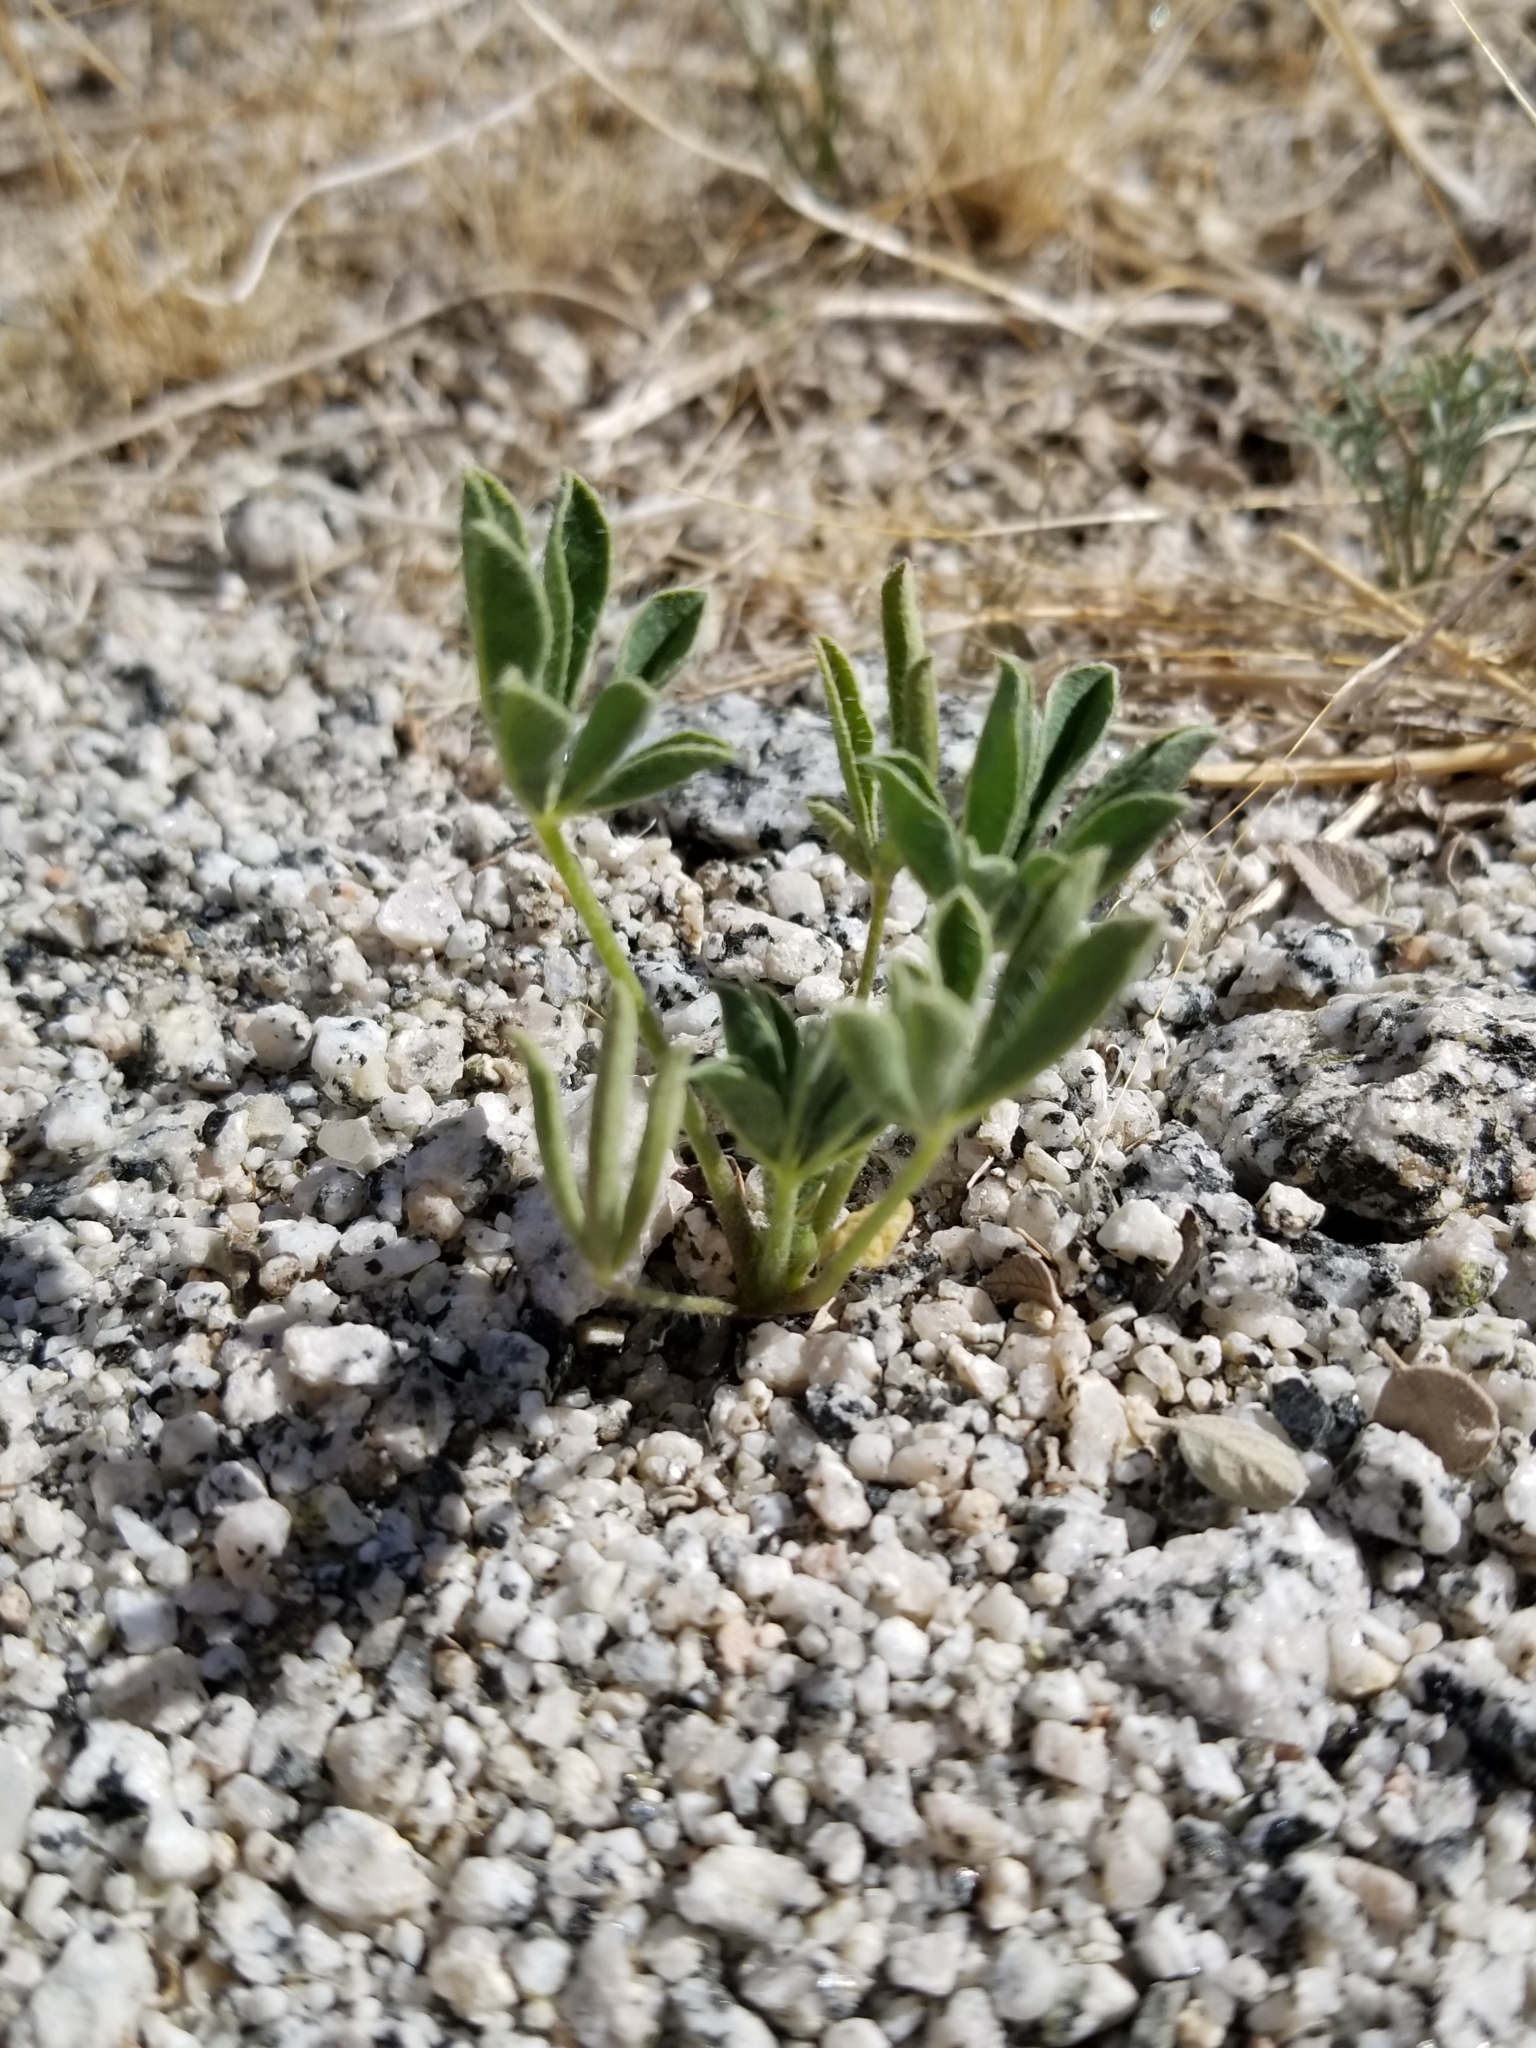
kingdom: Plantae
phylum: Tracheophyta
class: Magnoliopsida
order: Fabales
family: Fabaceae
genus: Lupinus
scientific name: Lupinus arizonicus
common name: Arizona lupine
